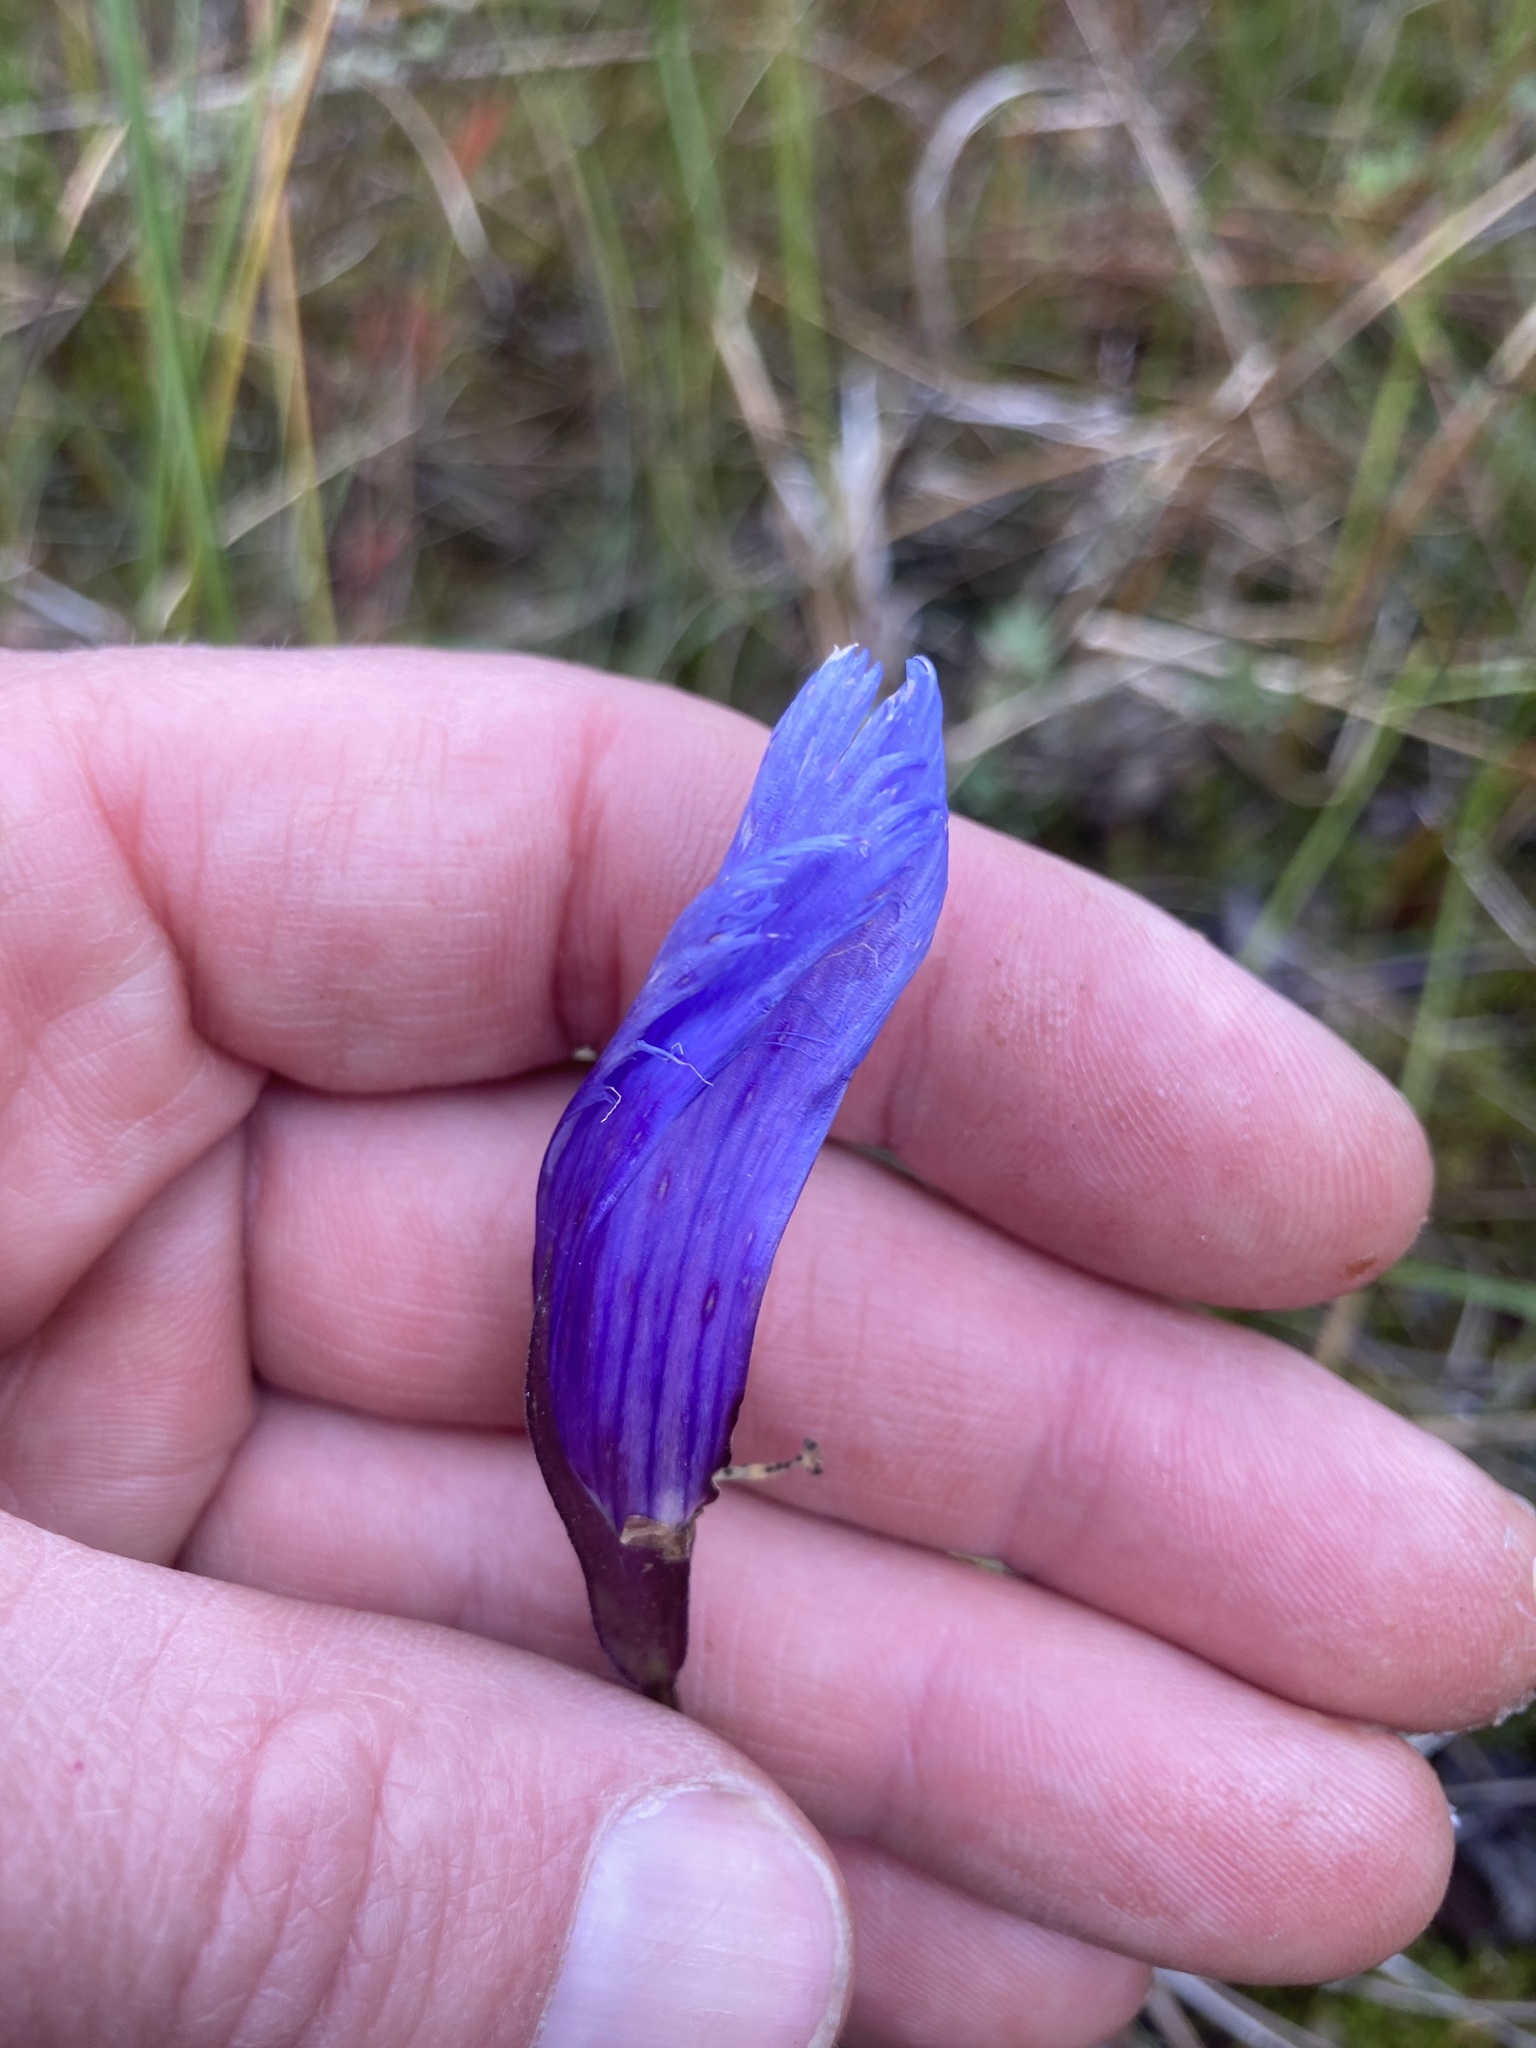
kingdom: Plantae
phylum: Tracheophyta
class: Magnoliopsida
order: Gentianales
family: Gentianaceae
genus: Gentianopsis
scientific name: Gentianopsis virgata
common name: Lesser fringed-gentian
